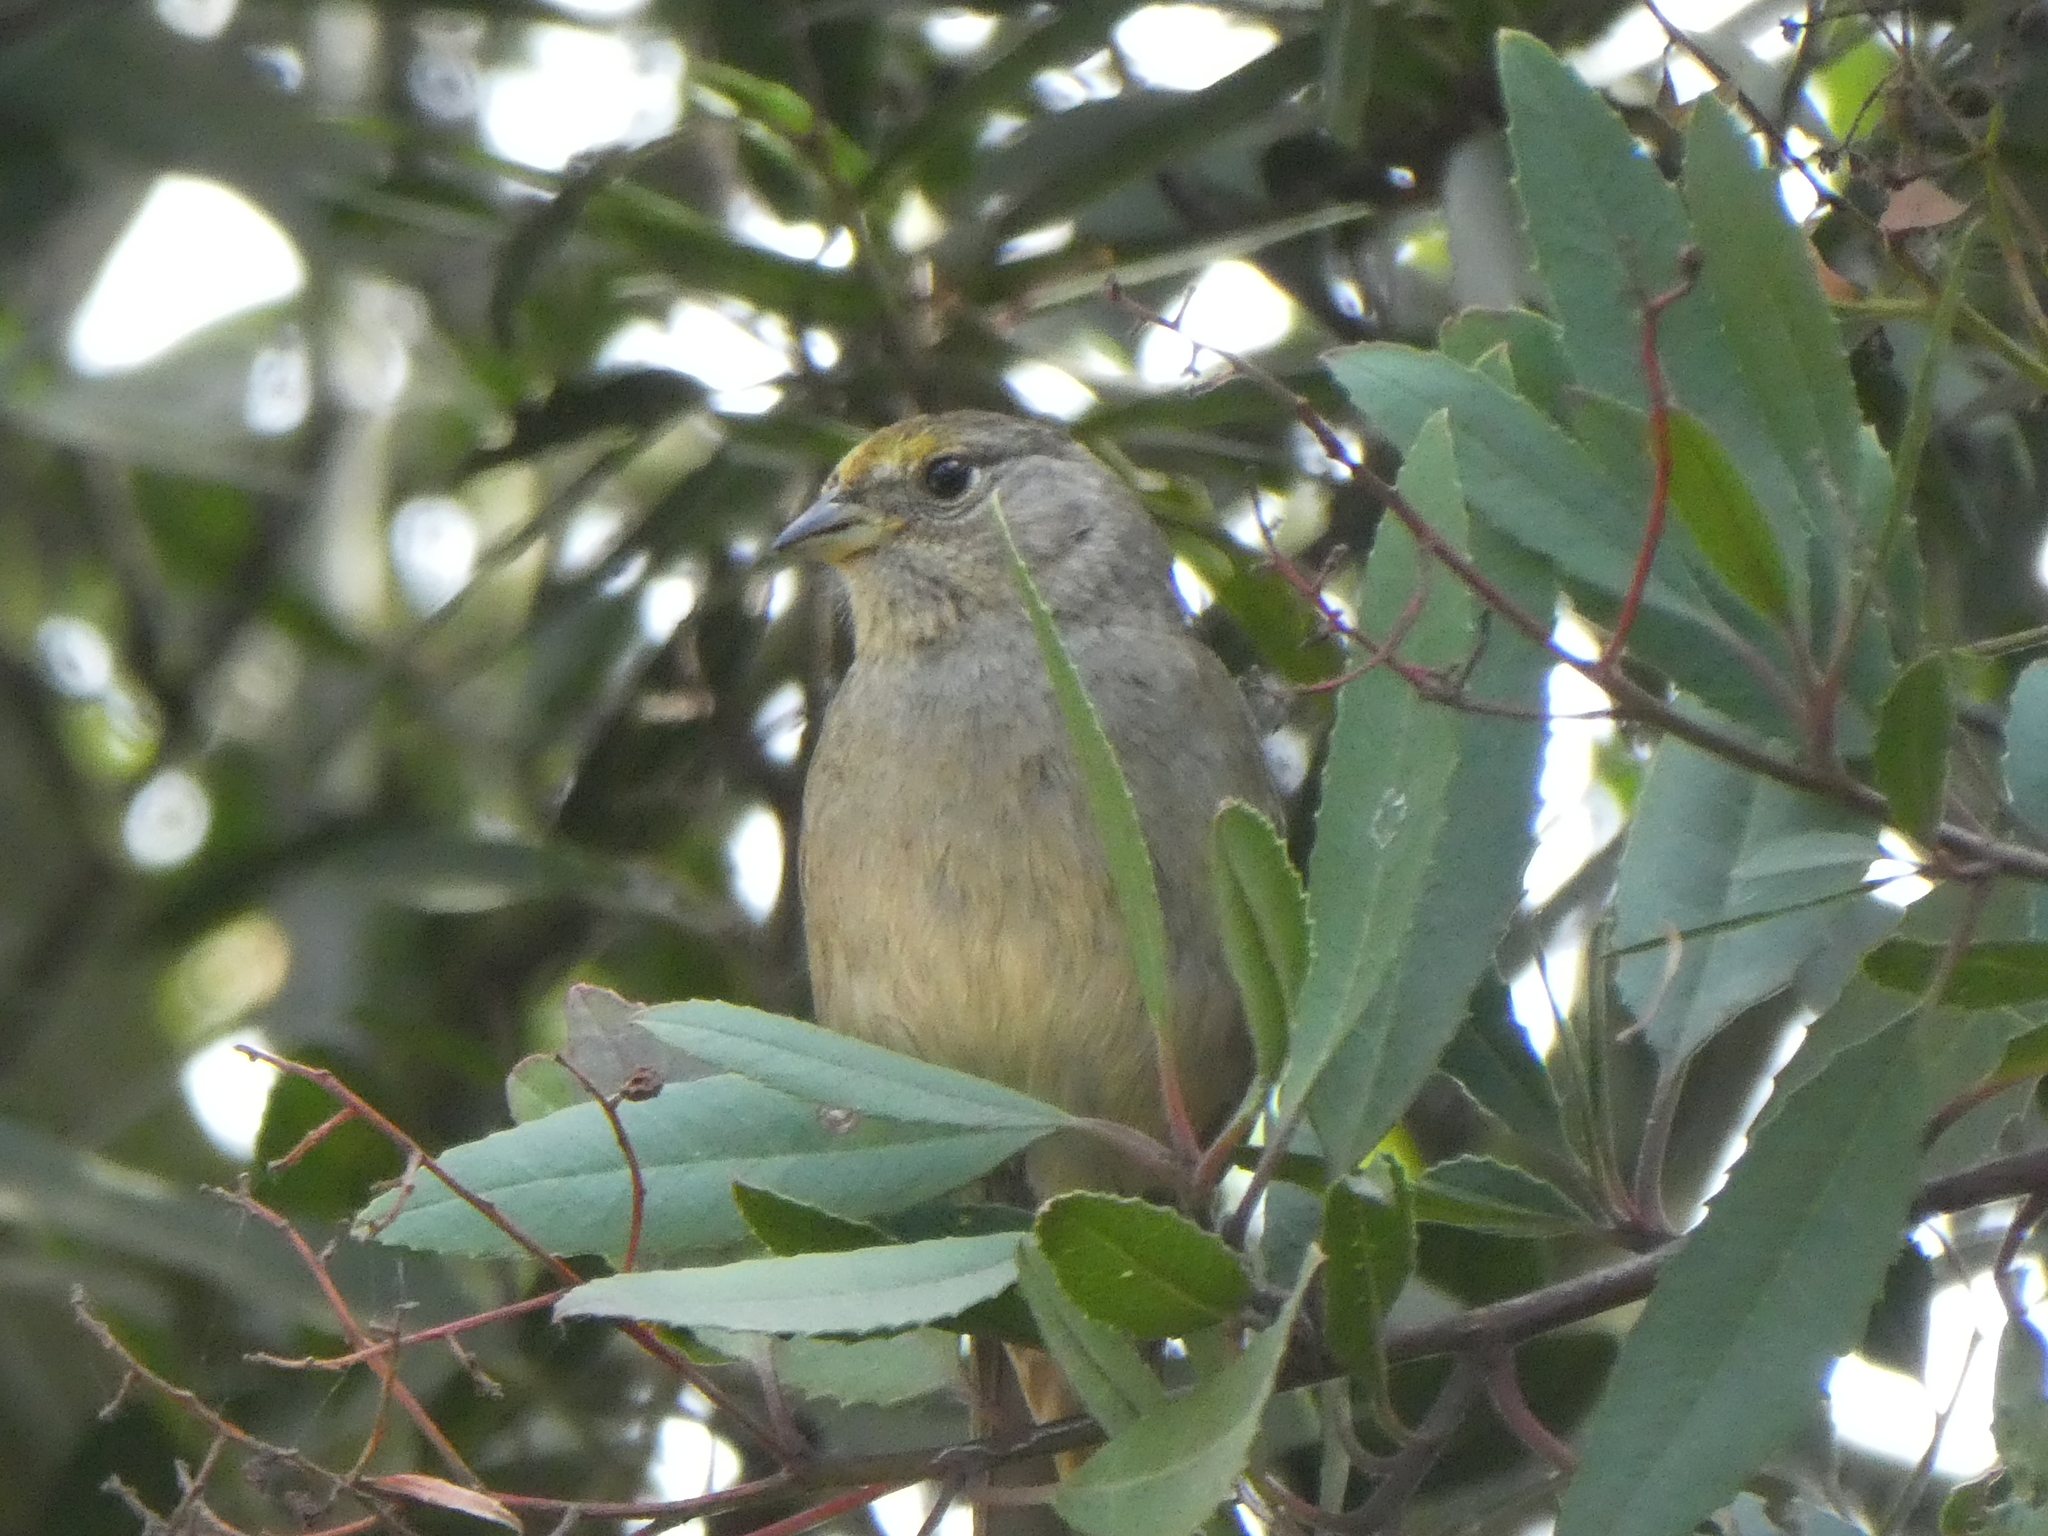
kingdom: Animalia
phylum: Chordata
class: Aves
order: Passeriformes
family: Passerellidae
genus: Zonotrichia
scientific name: Zonotrichia atricapilla
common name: Golden-crowned sparrow
